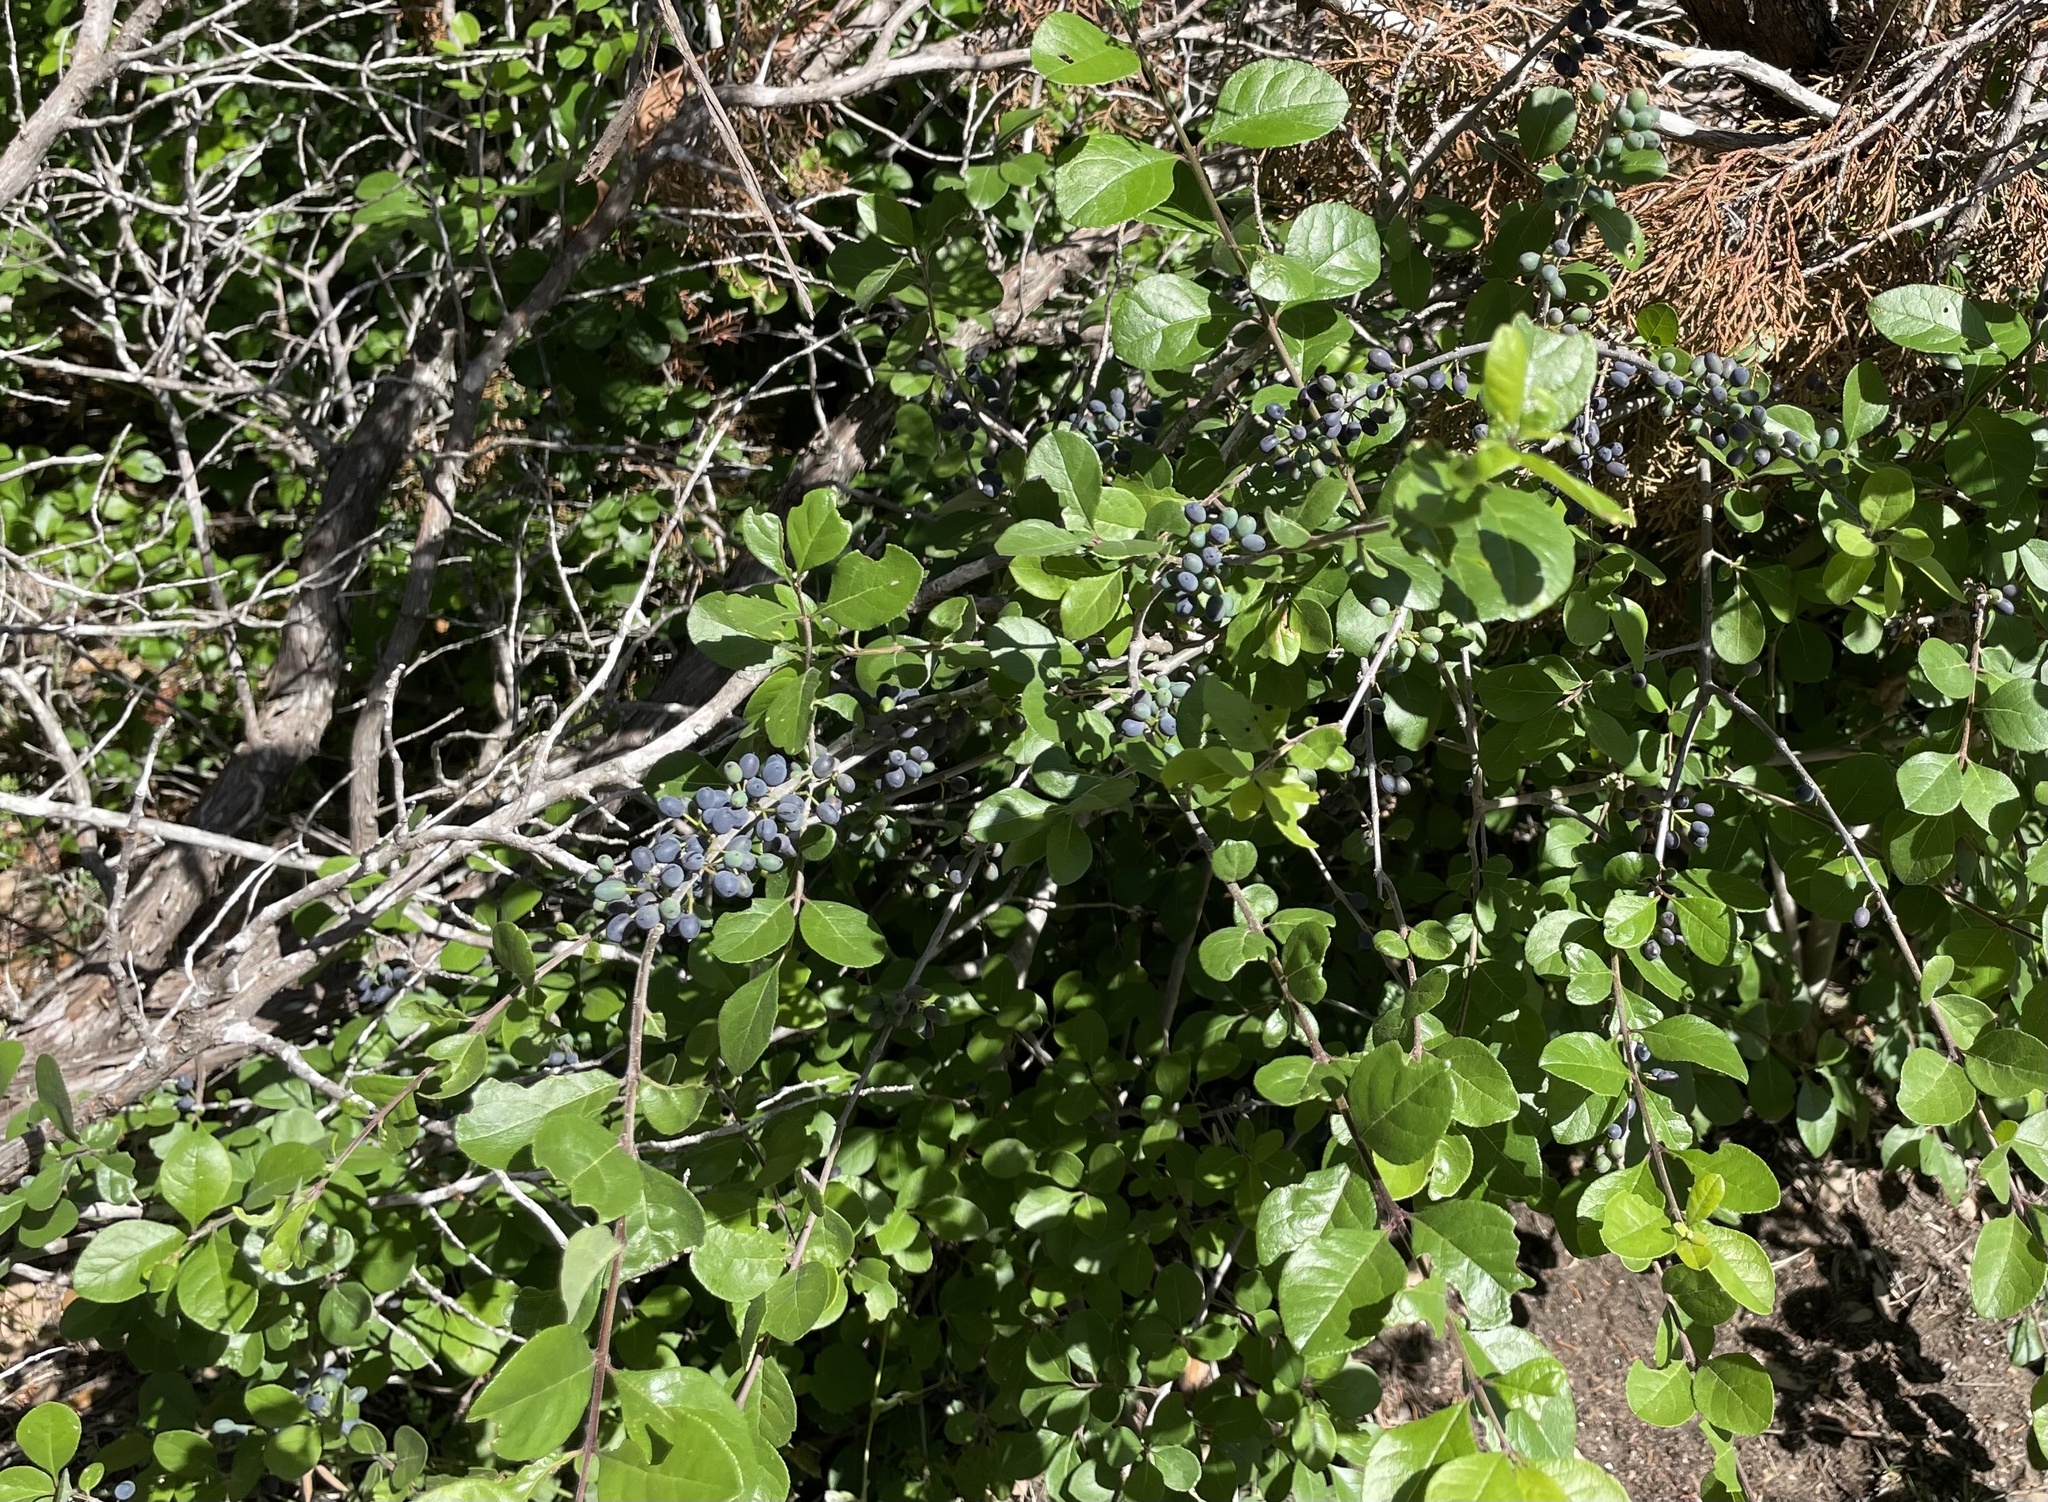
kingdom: Plantae
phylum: Tracheophyta
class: Magnoliopsida
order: Lamiales
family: Oleaceae
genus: Forestiera
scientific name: Forestiera pubescens
